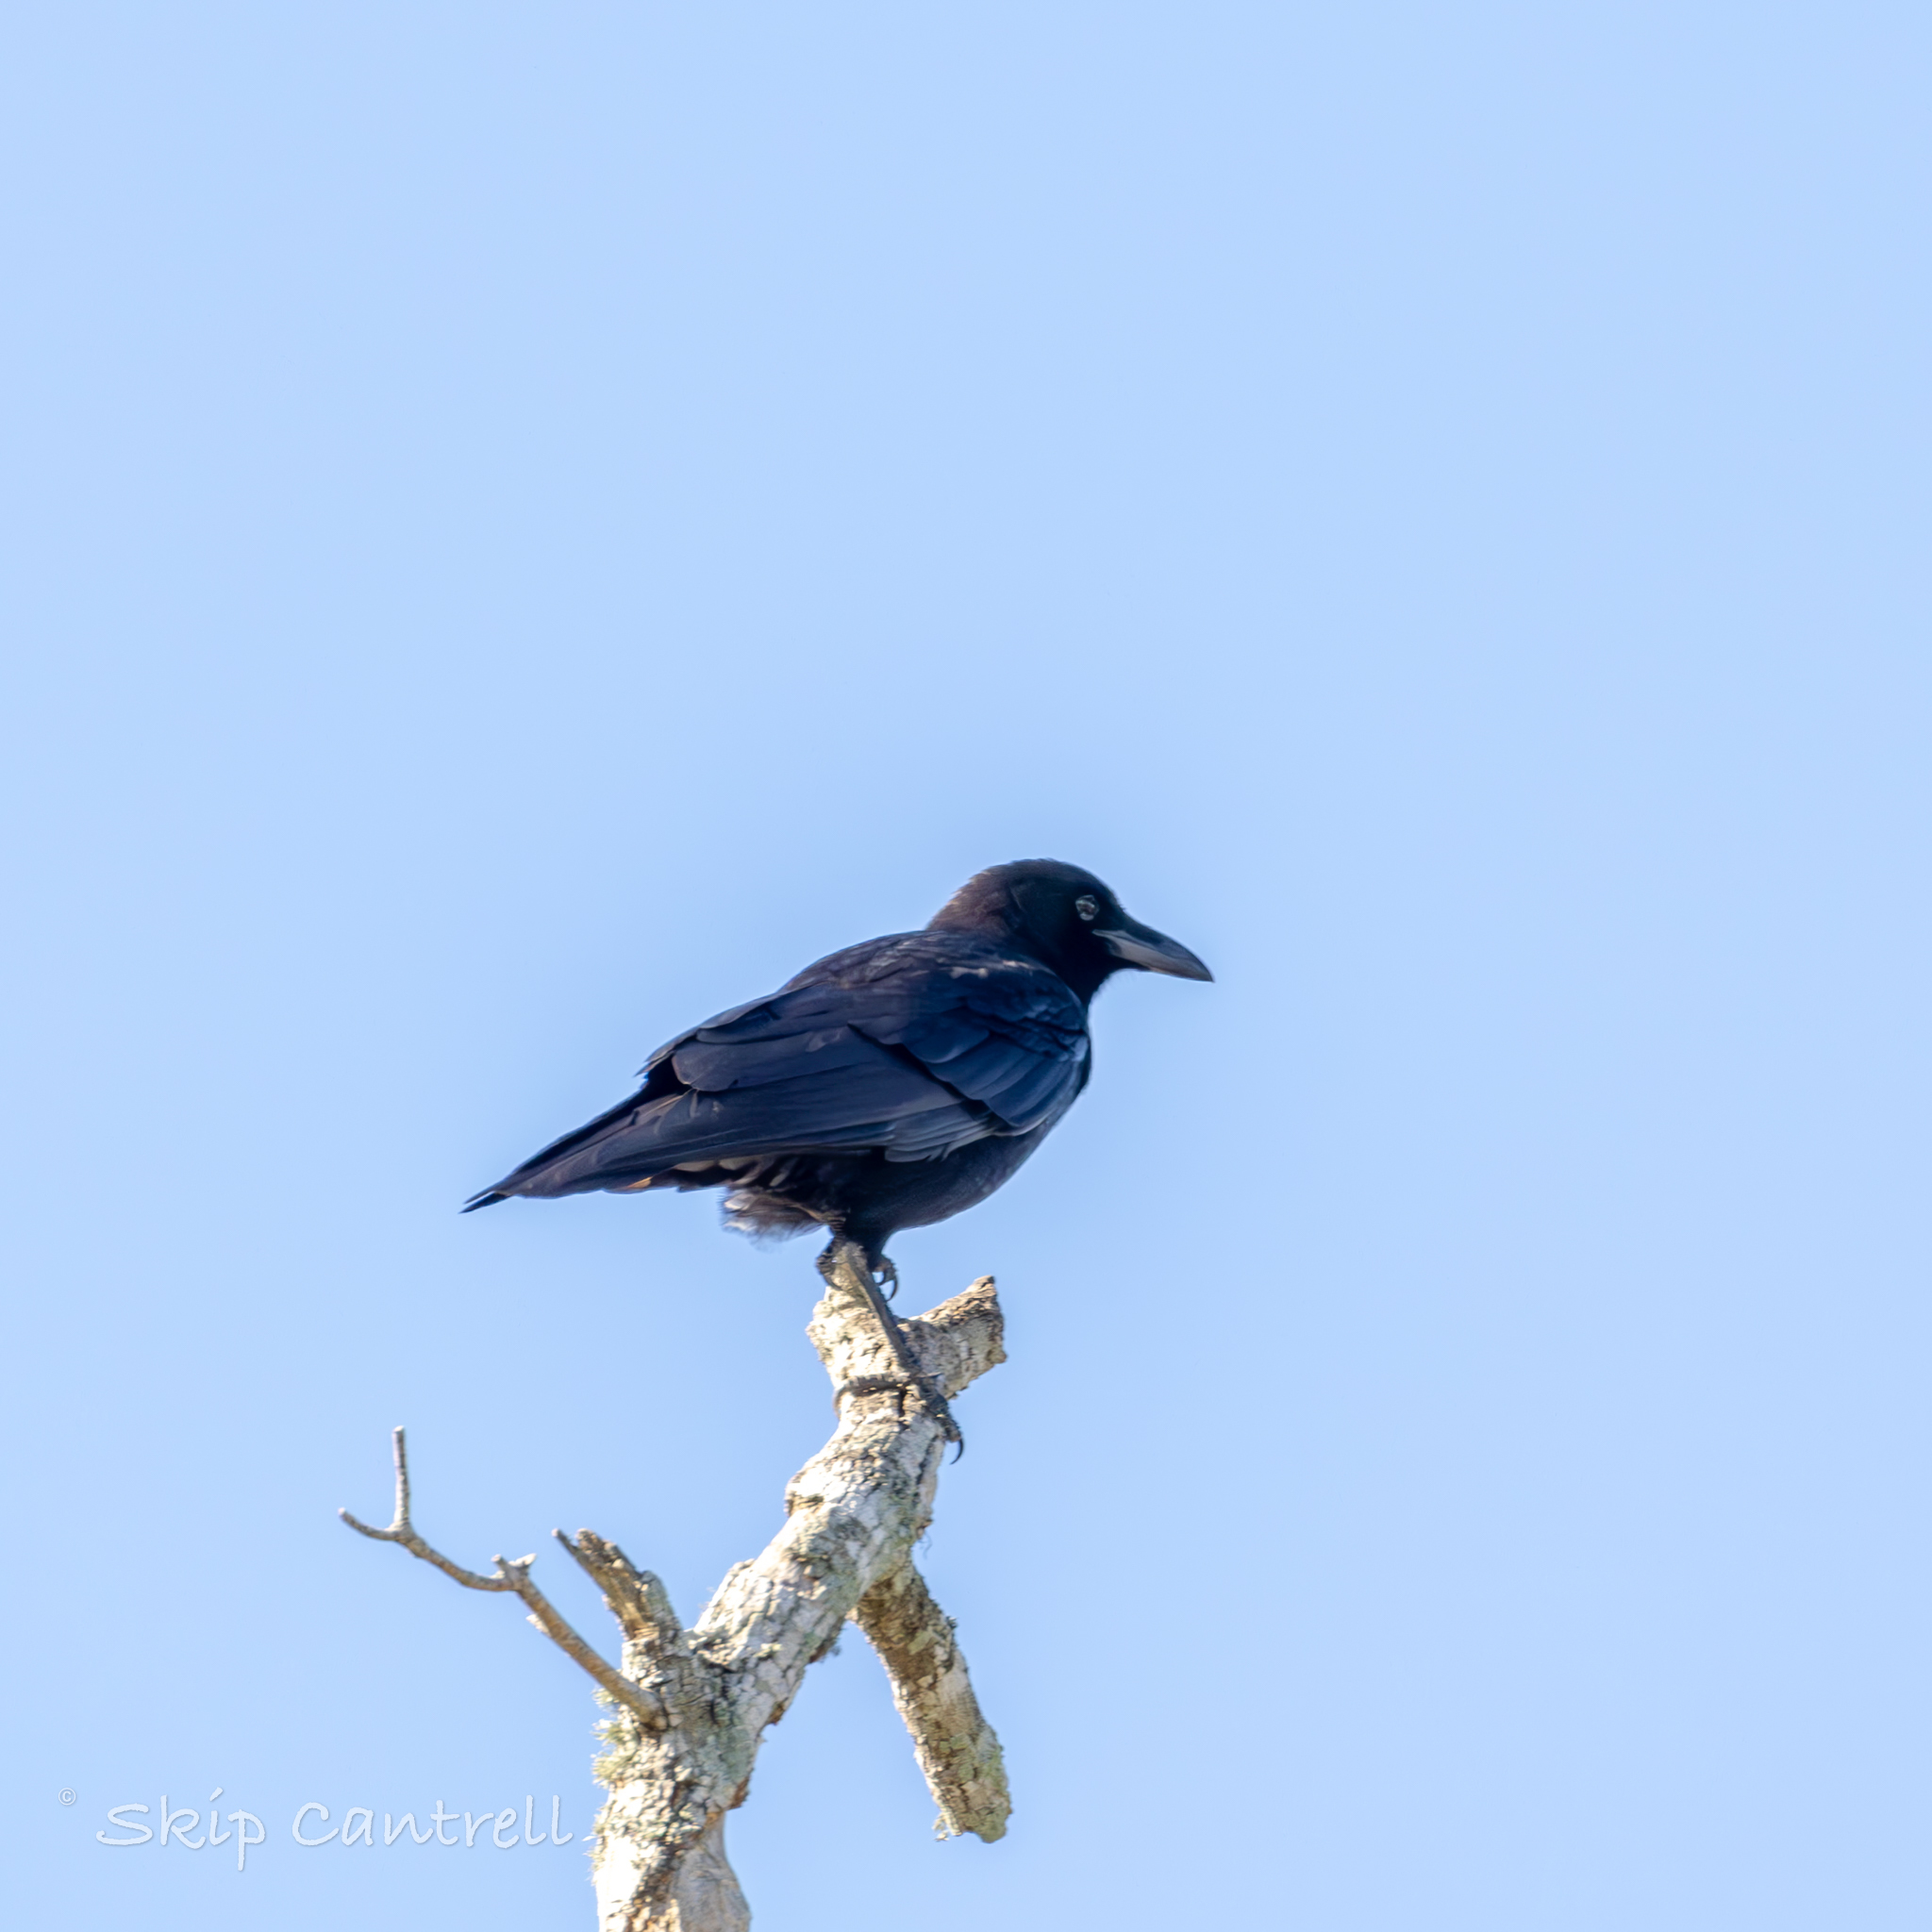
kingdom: Animalia
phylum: Chordata
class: Aves
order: Passeriformes
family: Corvidae
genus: Corvus
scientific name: Corvus brachyrhynchos
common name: American crow
